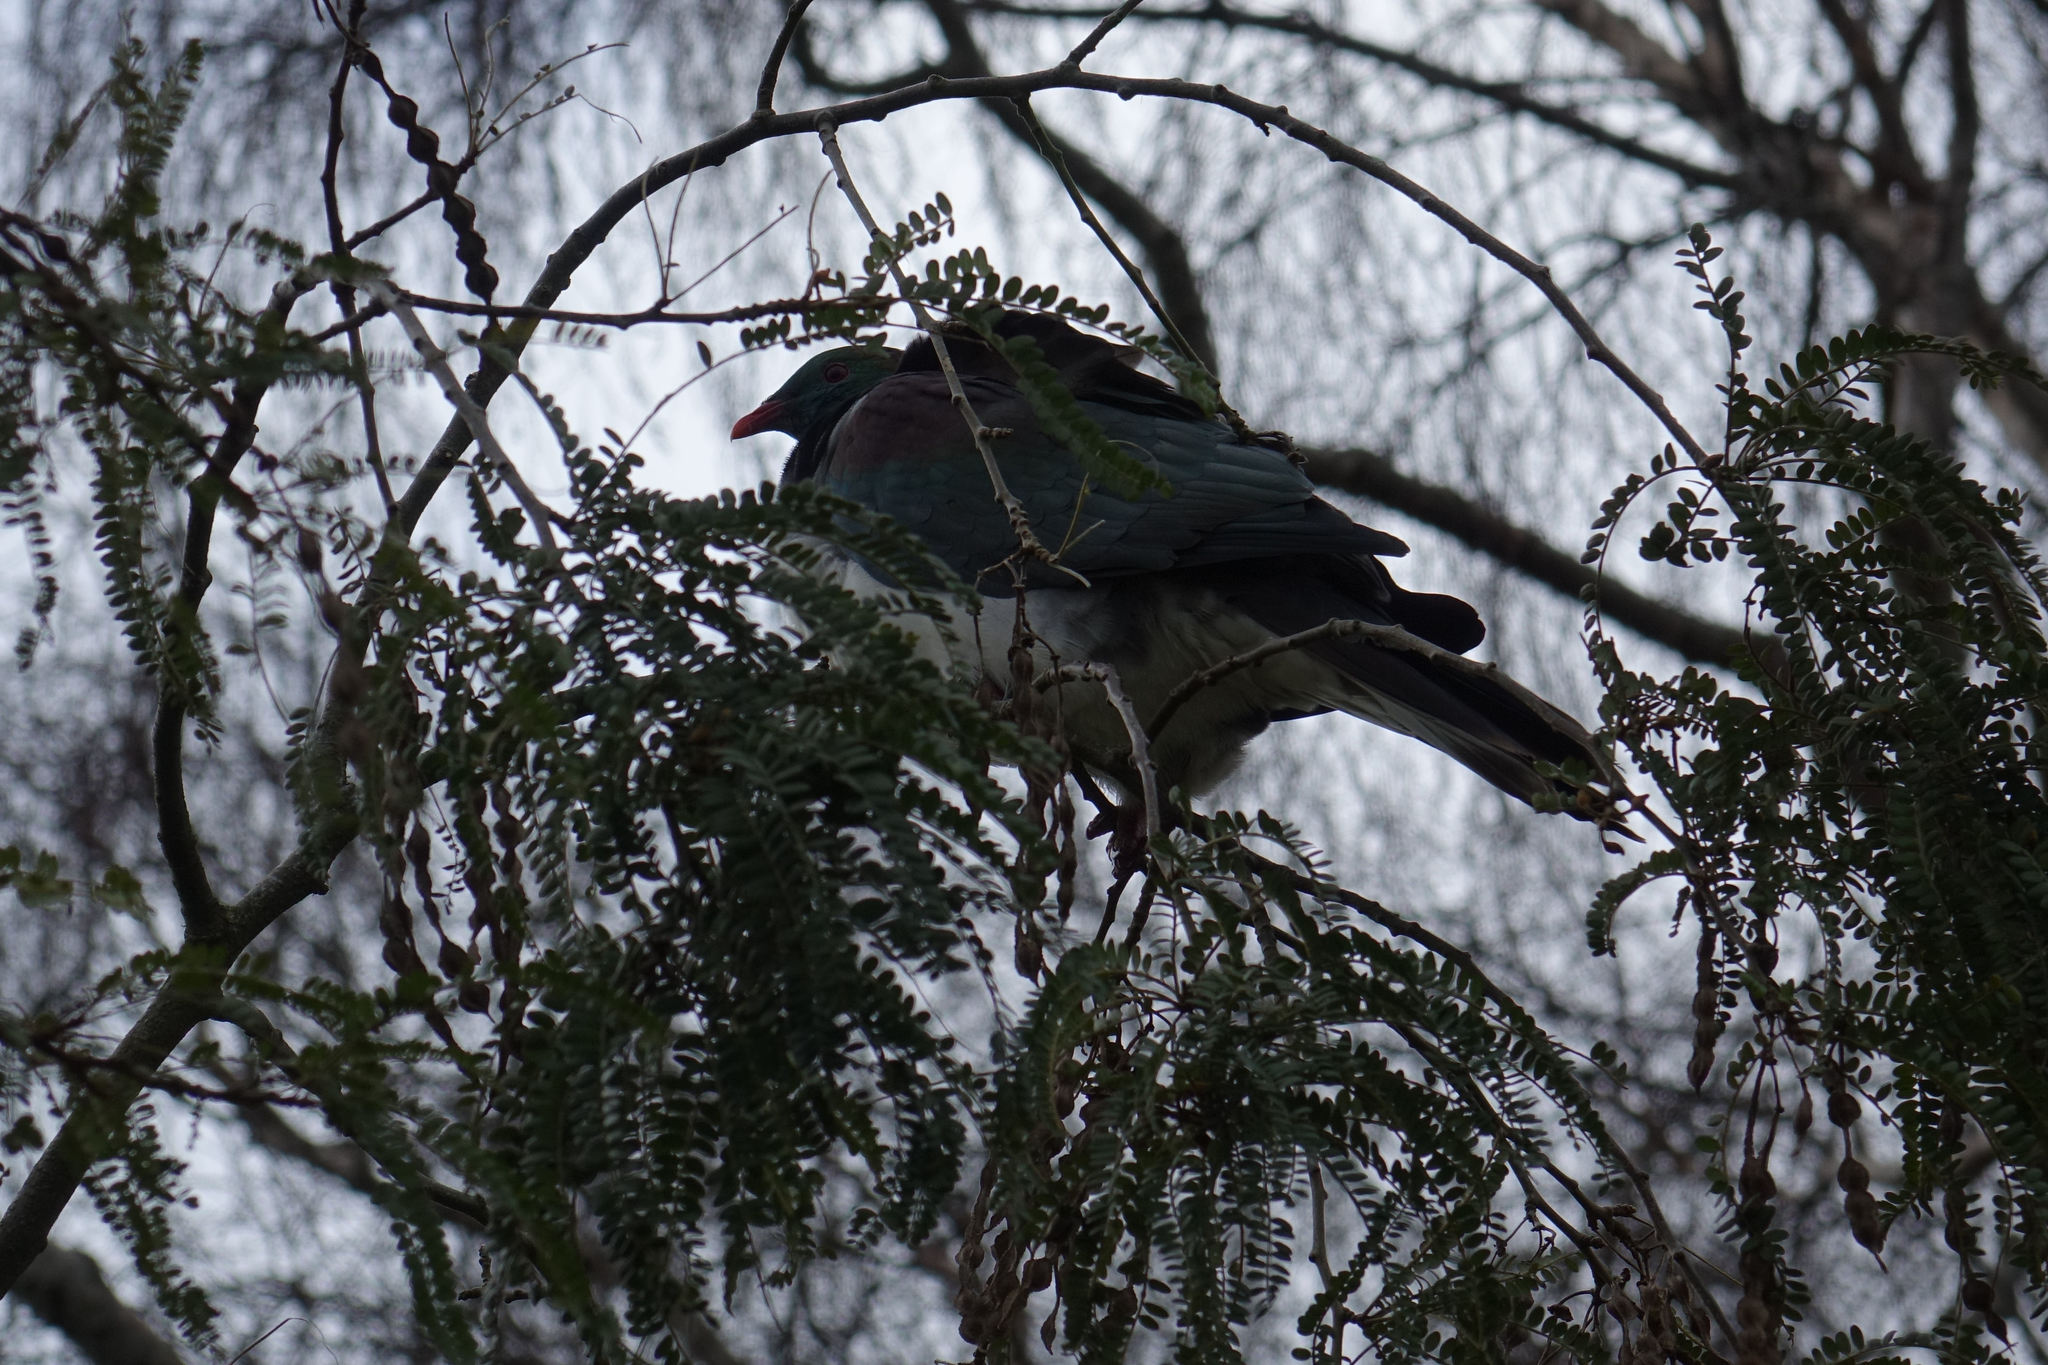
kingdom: Animalia
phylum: Chordata
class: Aves
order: Columbiformes
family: Columbidae
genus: Hemiphaga
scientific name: Hemiphaga novaeseelandiae
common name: New zealand pigeon
